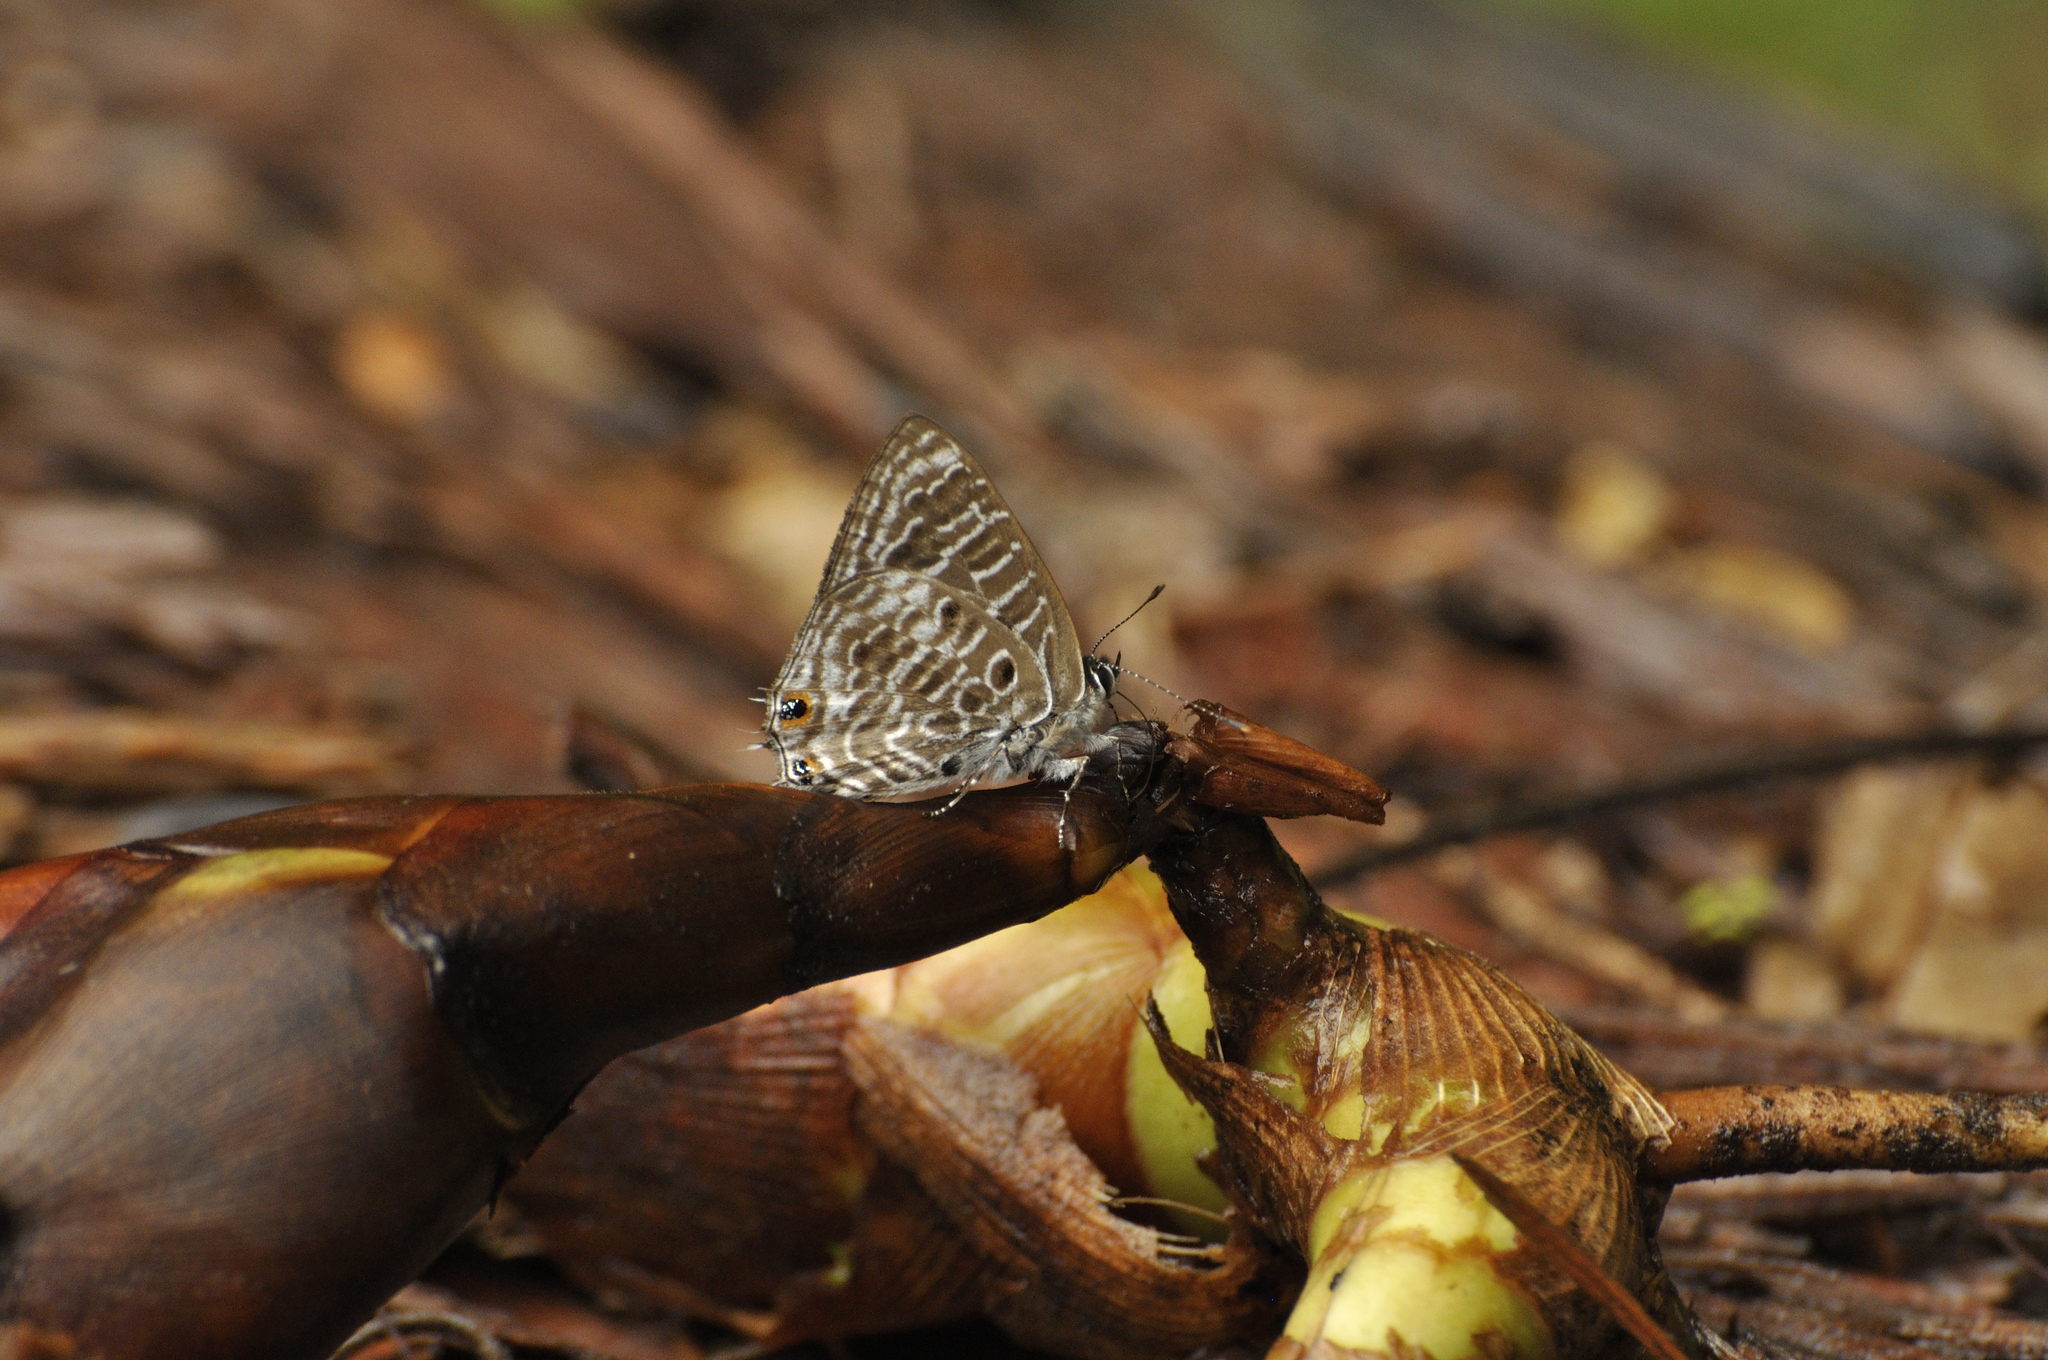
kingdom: Animalia
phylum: Arthropoda
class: Insecta
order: Lepidoptera
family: Lycaenidae
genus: Anthene
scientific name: Anthene larydas
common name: Forest hairtail
